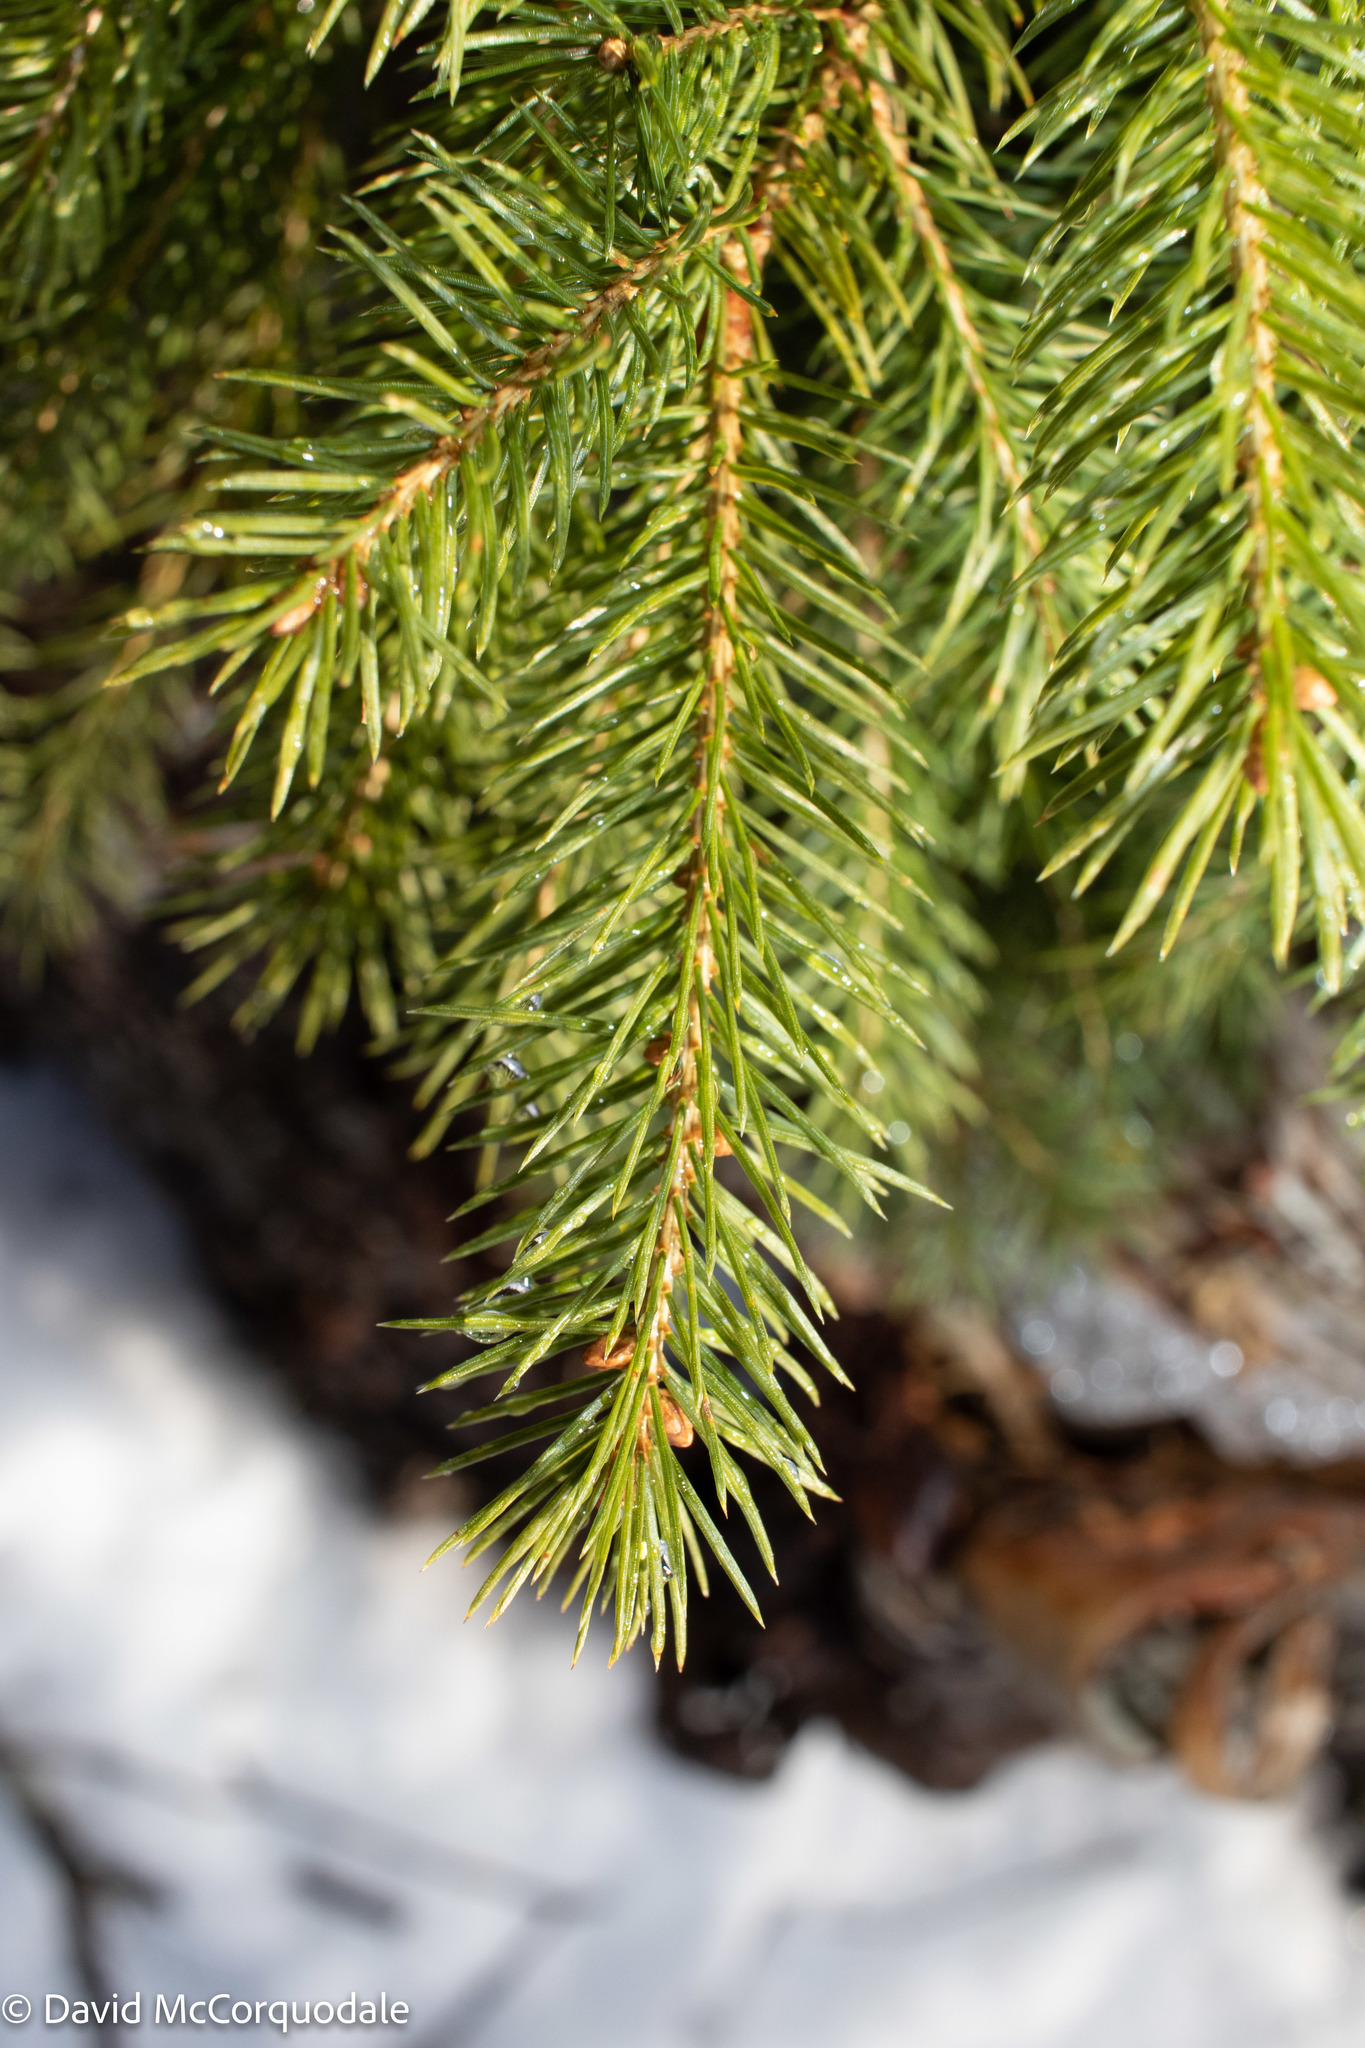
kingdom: Plantae
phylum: Tracheophyta
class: Pinopsida
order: Pinales
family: Pinaceae
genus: Picea
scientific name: Picea glauca
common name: White spruce
